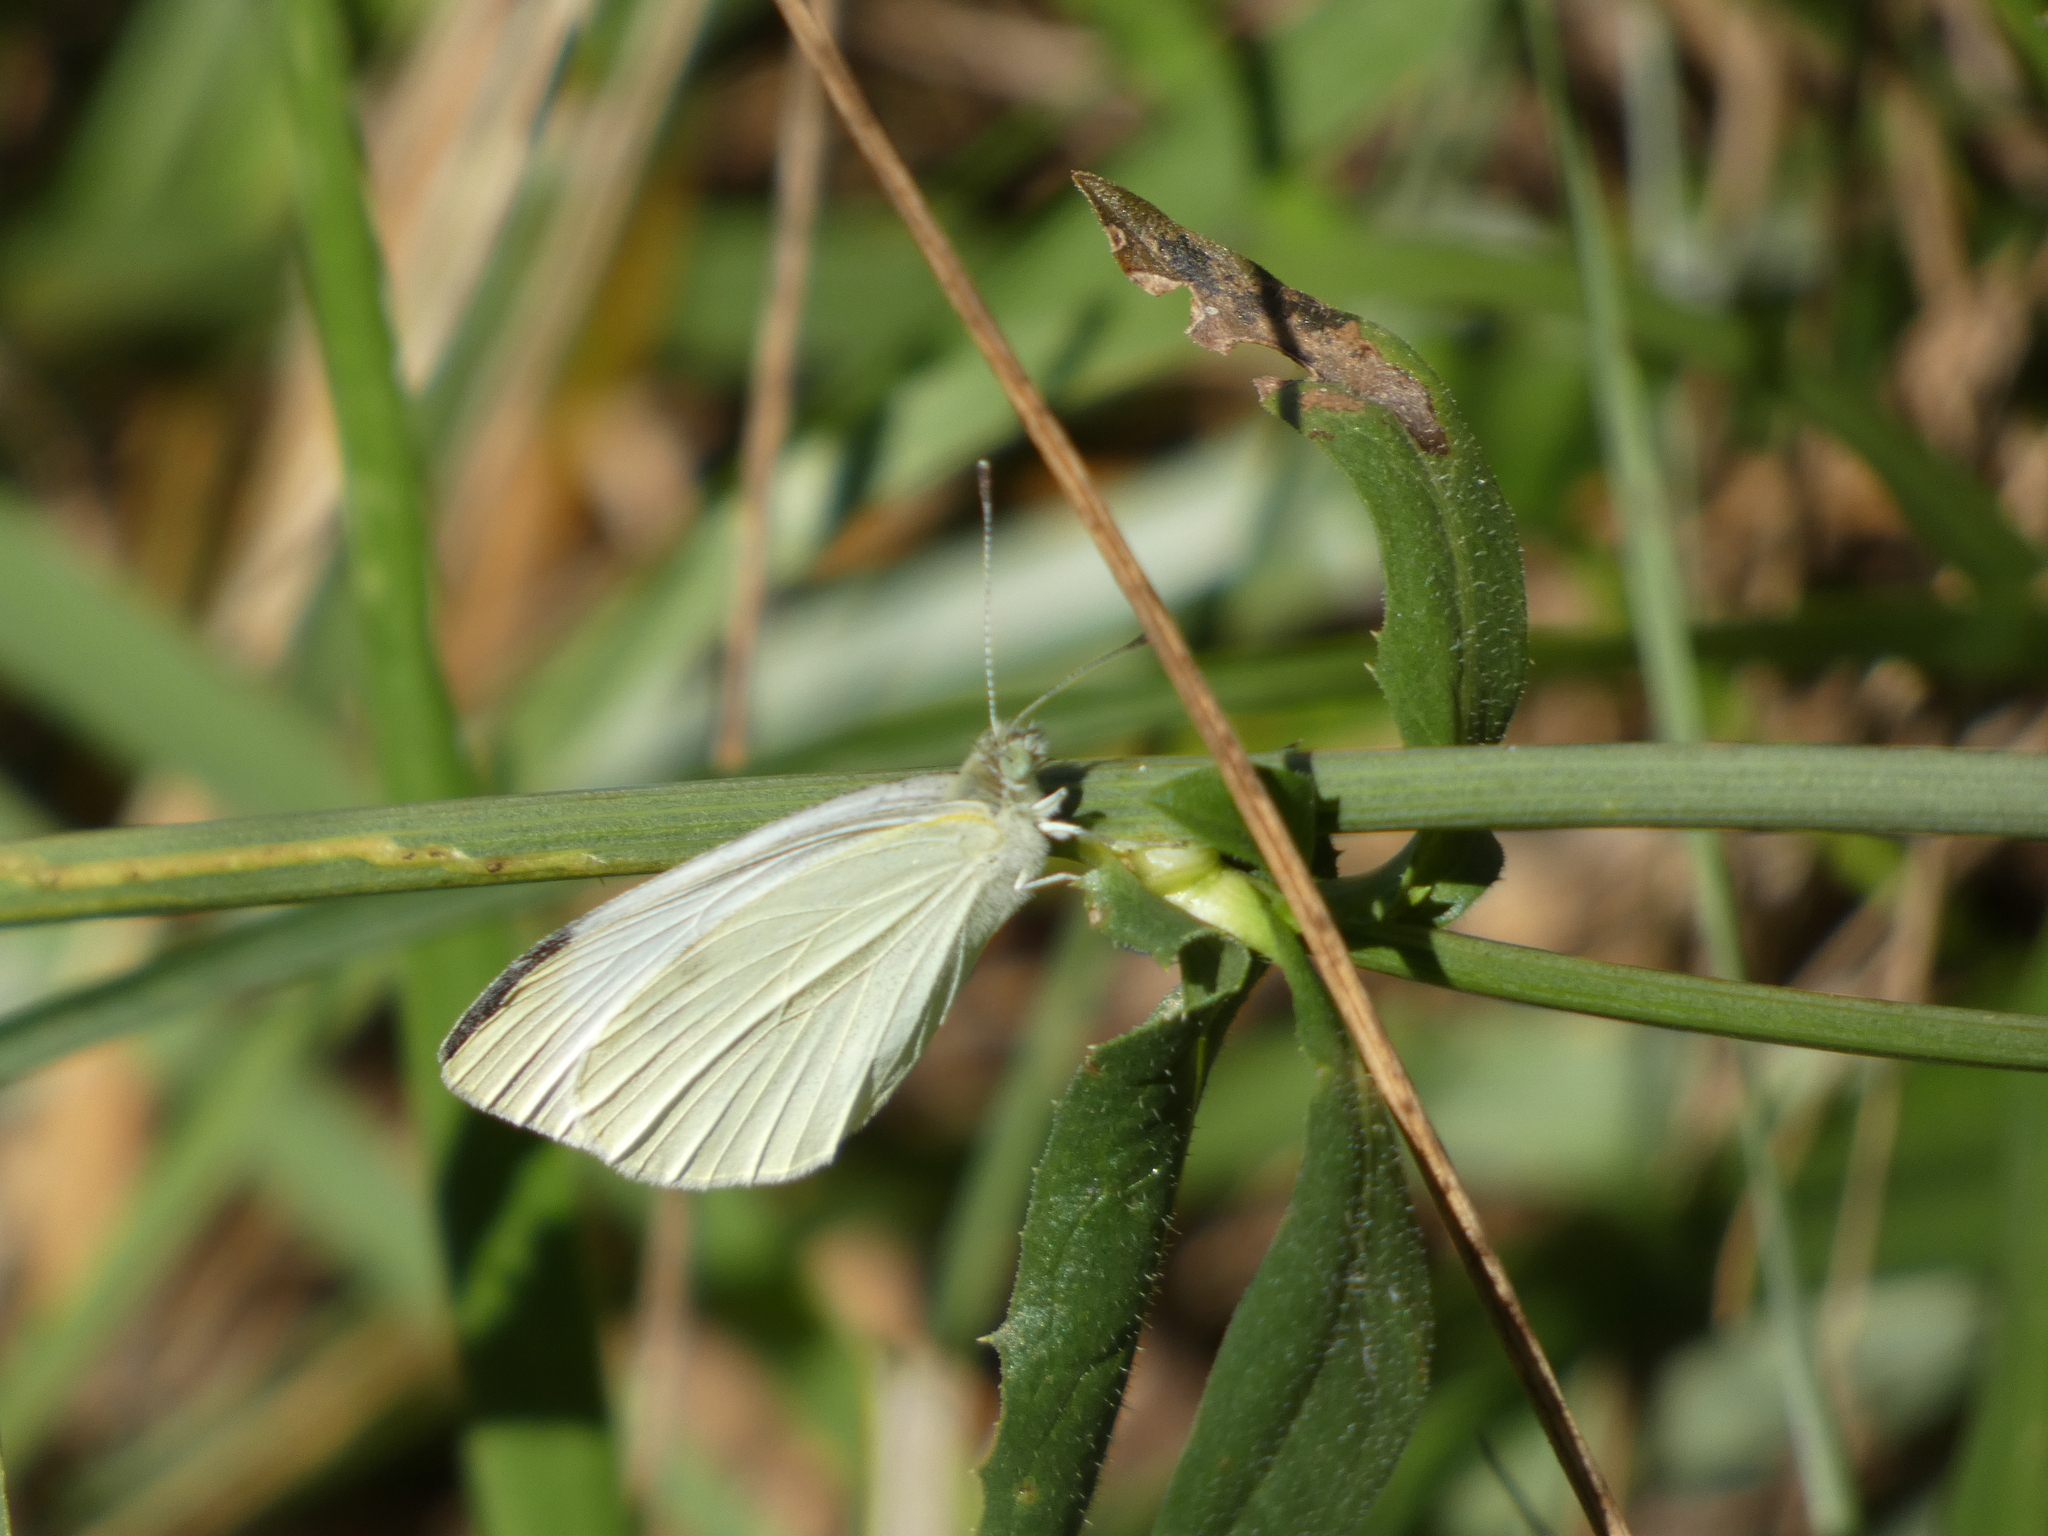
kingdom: Animalia
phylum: Arthropoda
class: Insecta
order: Lepidoptera
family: Pieridae
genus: Pieris
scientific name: Pieris rapae
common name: Small white
